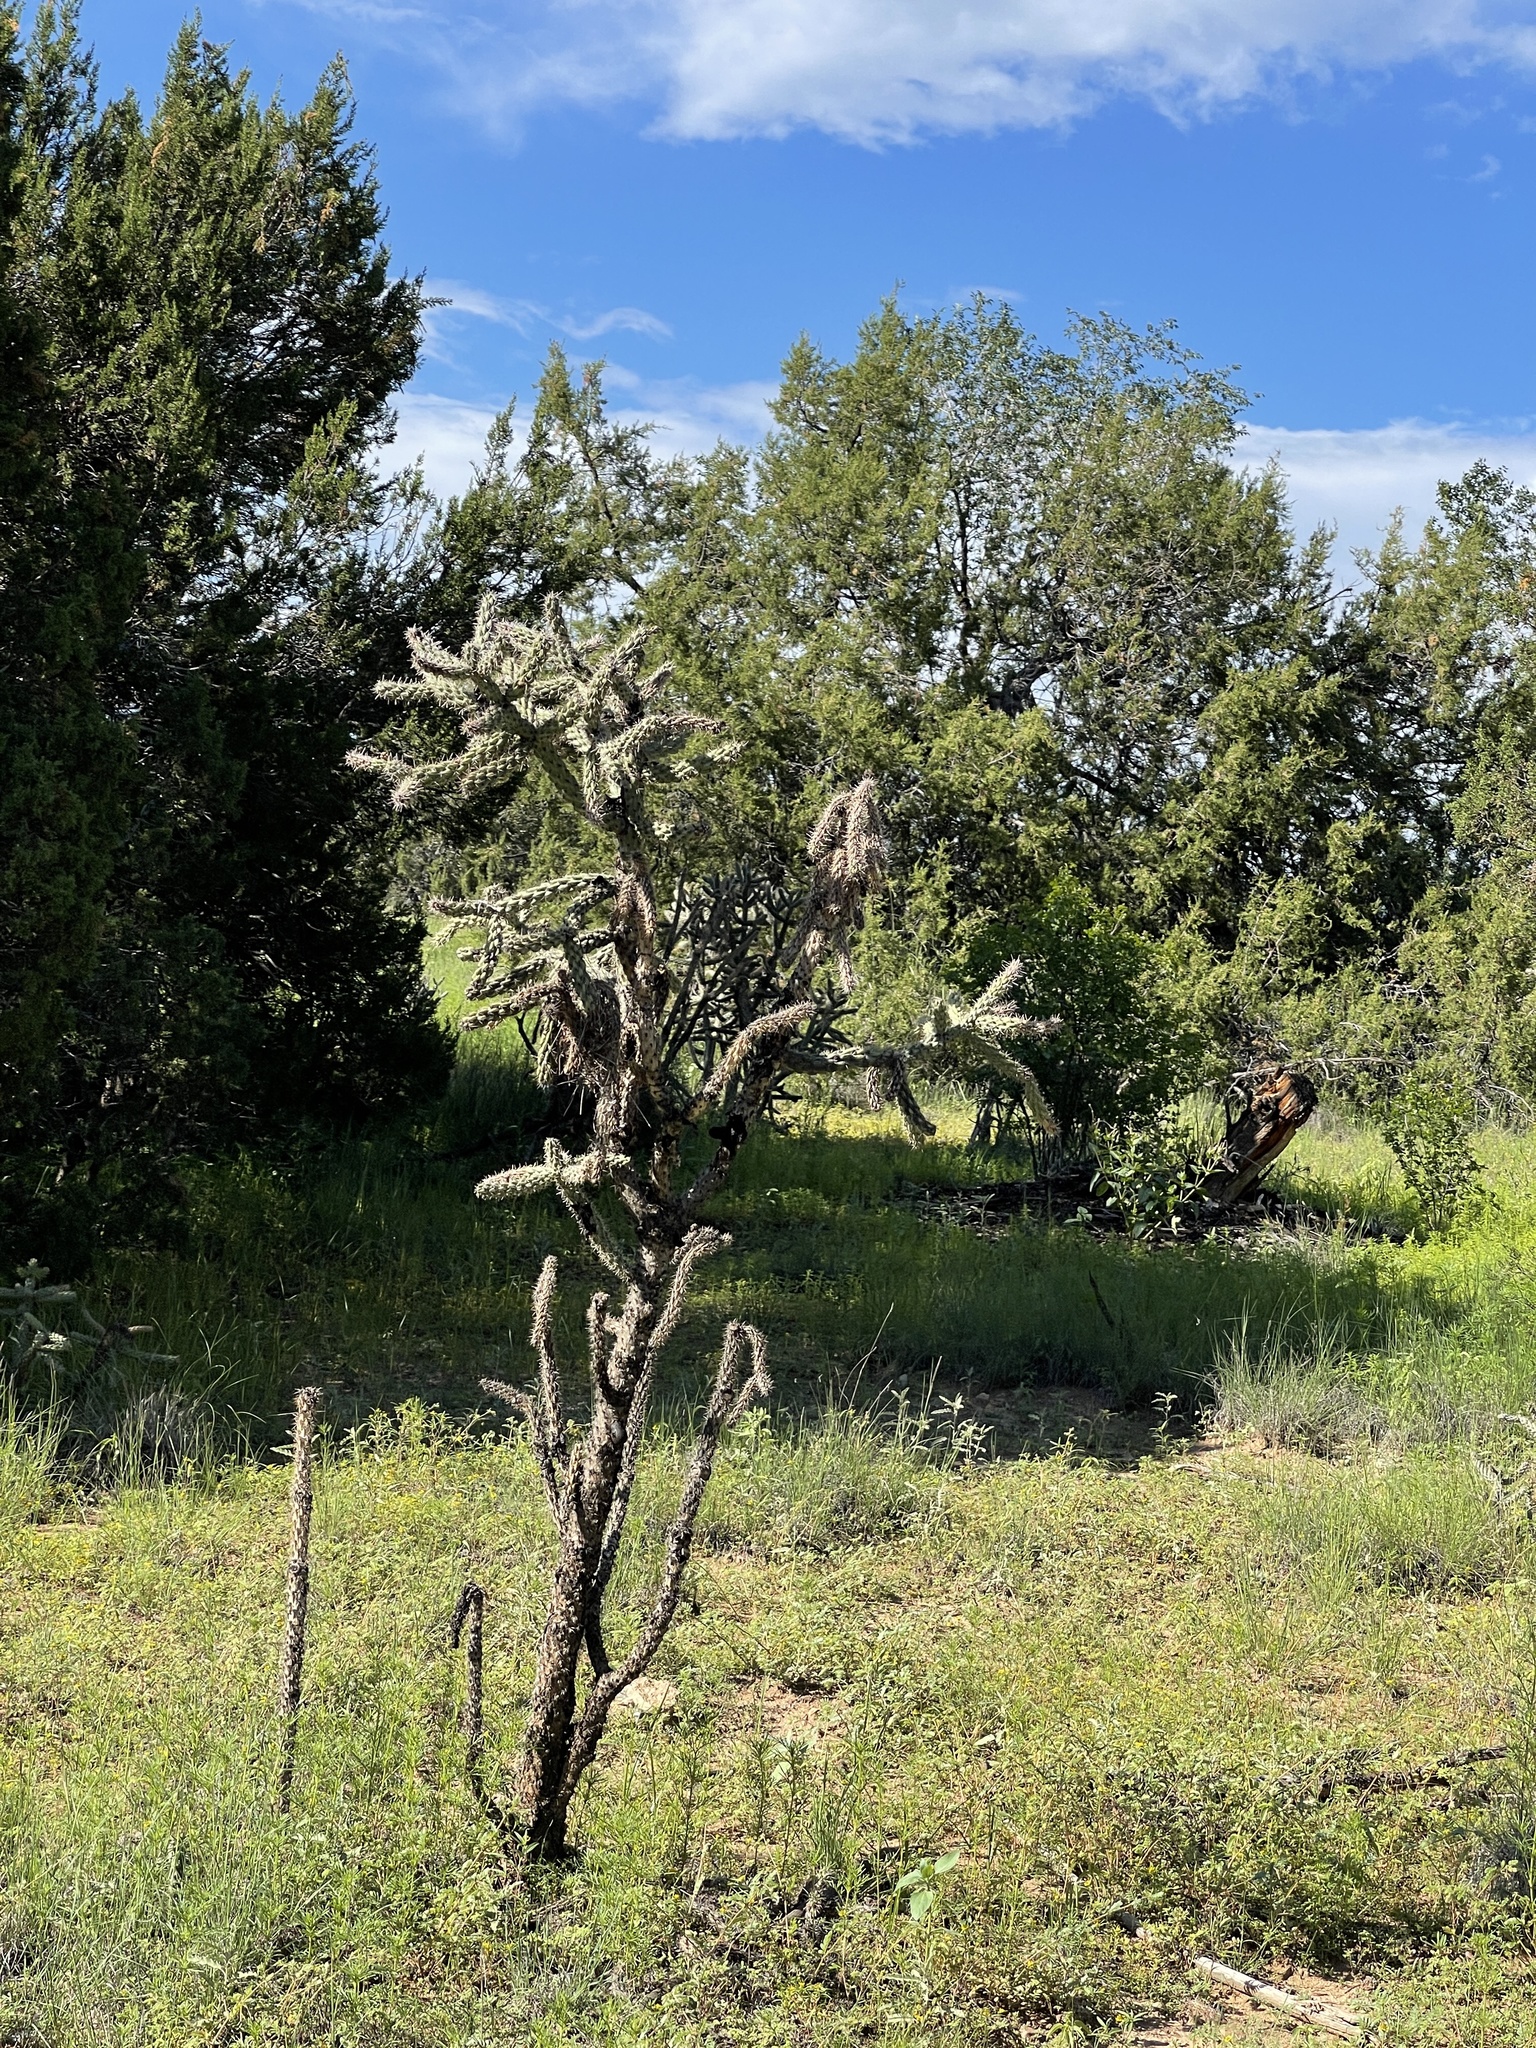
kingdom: Plantae
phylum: Tracheophyta
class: Magnoliopsida
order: Caryophyllales
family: Cactaceae
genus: Cylindropuntia
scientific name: Cylindropuntia imbricata
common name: Candelabrum cactus
